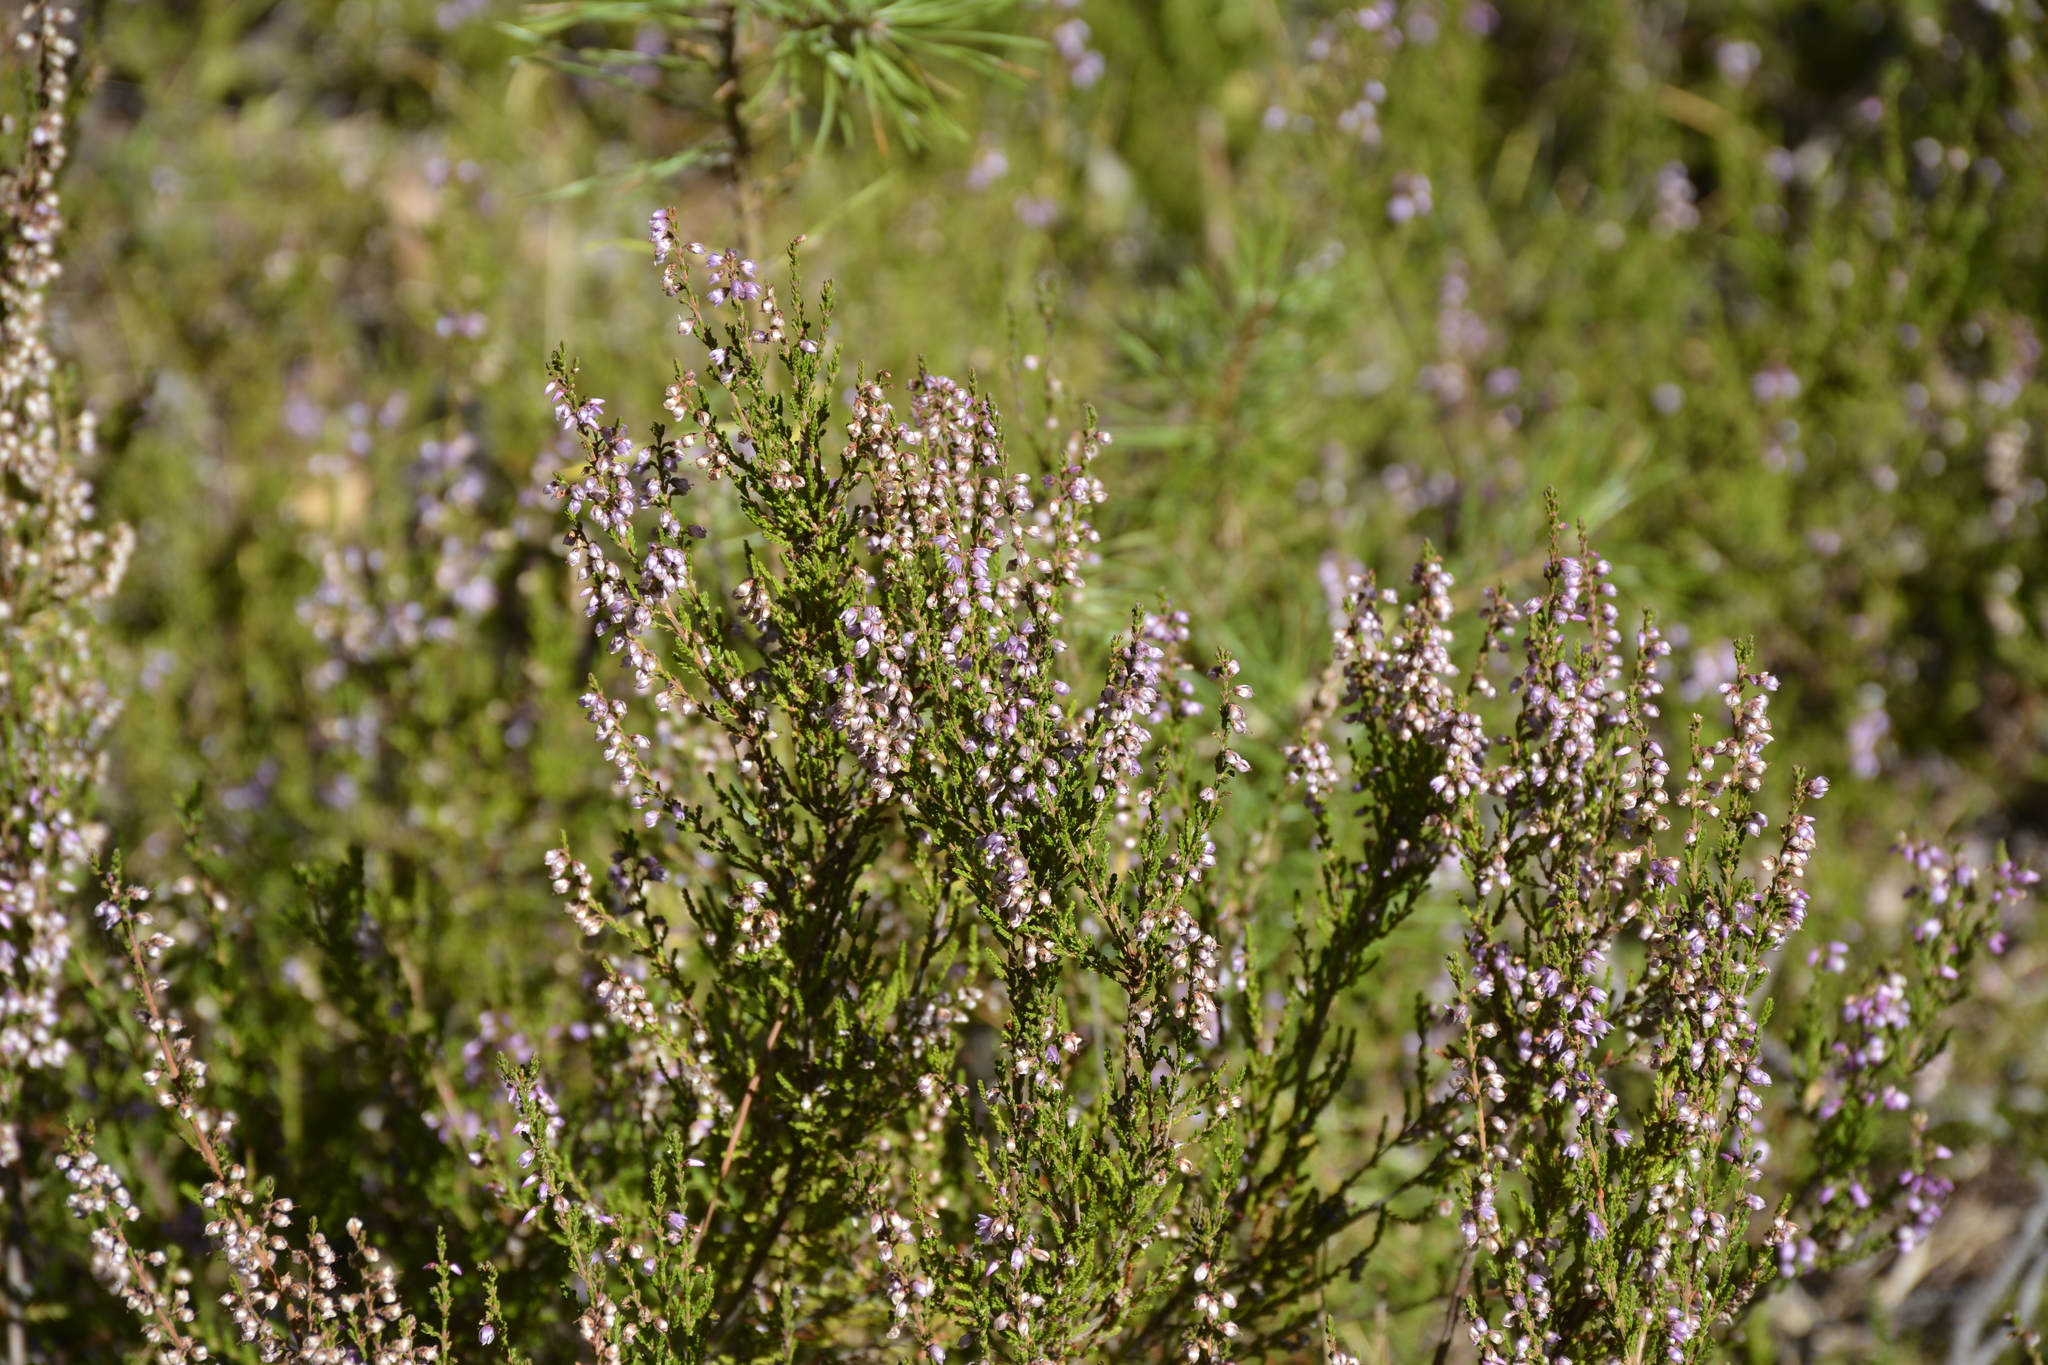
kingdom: Plantae
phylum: Tracheophyta
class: Magnoliopsida
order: Ericales
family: Ericaceae
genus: Calluna
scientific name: Calluna vulgaris
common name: Heather
